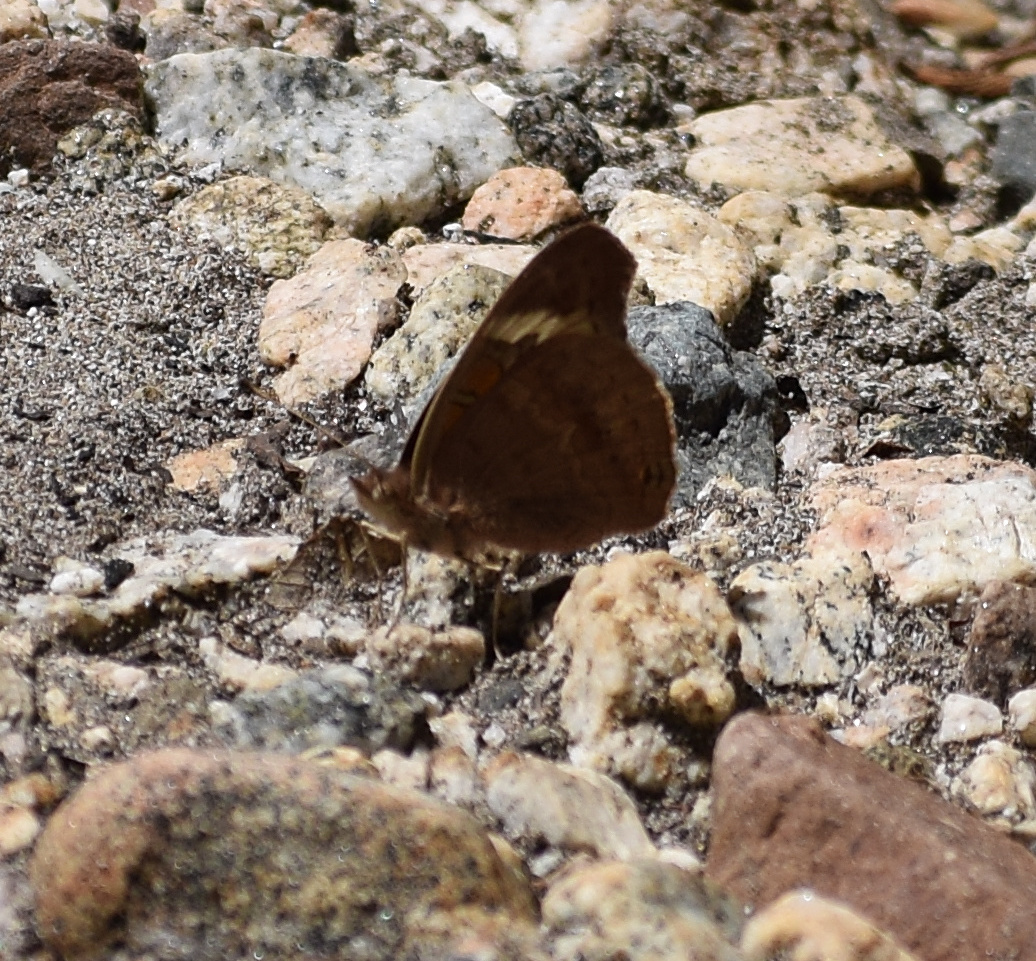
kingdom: Animalia
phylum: Arthropoda
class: Insecta
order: Lepidoptera
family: Nymphalidae
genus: Junonia
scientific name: Junonia grisea
